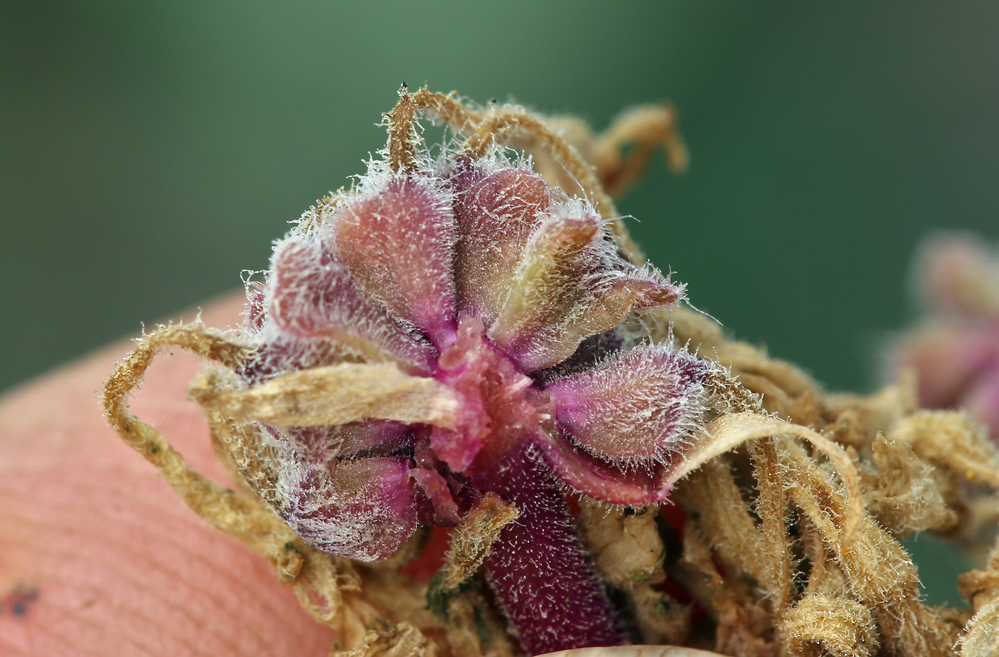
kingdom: Plantae
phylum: Tracheophyta
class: Magnoliopsida
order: Caryophyllales
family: Nyctaginaceae
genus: Abronia
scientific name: Abronia umbellata
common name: Sand-verbena
